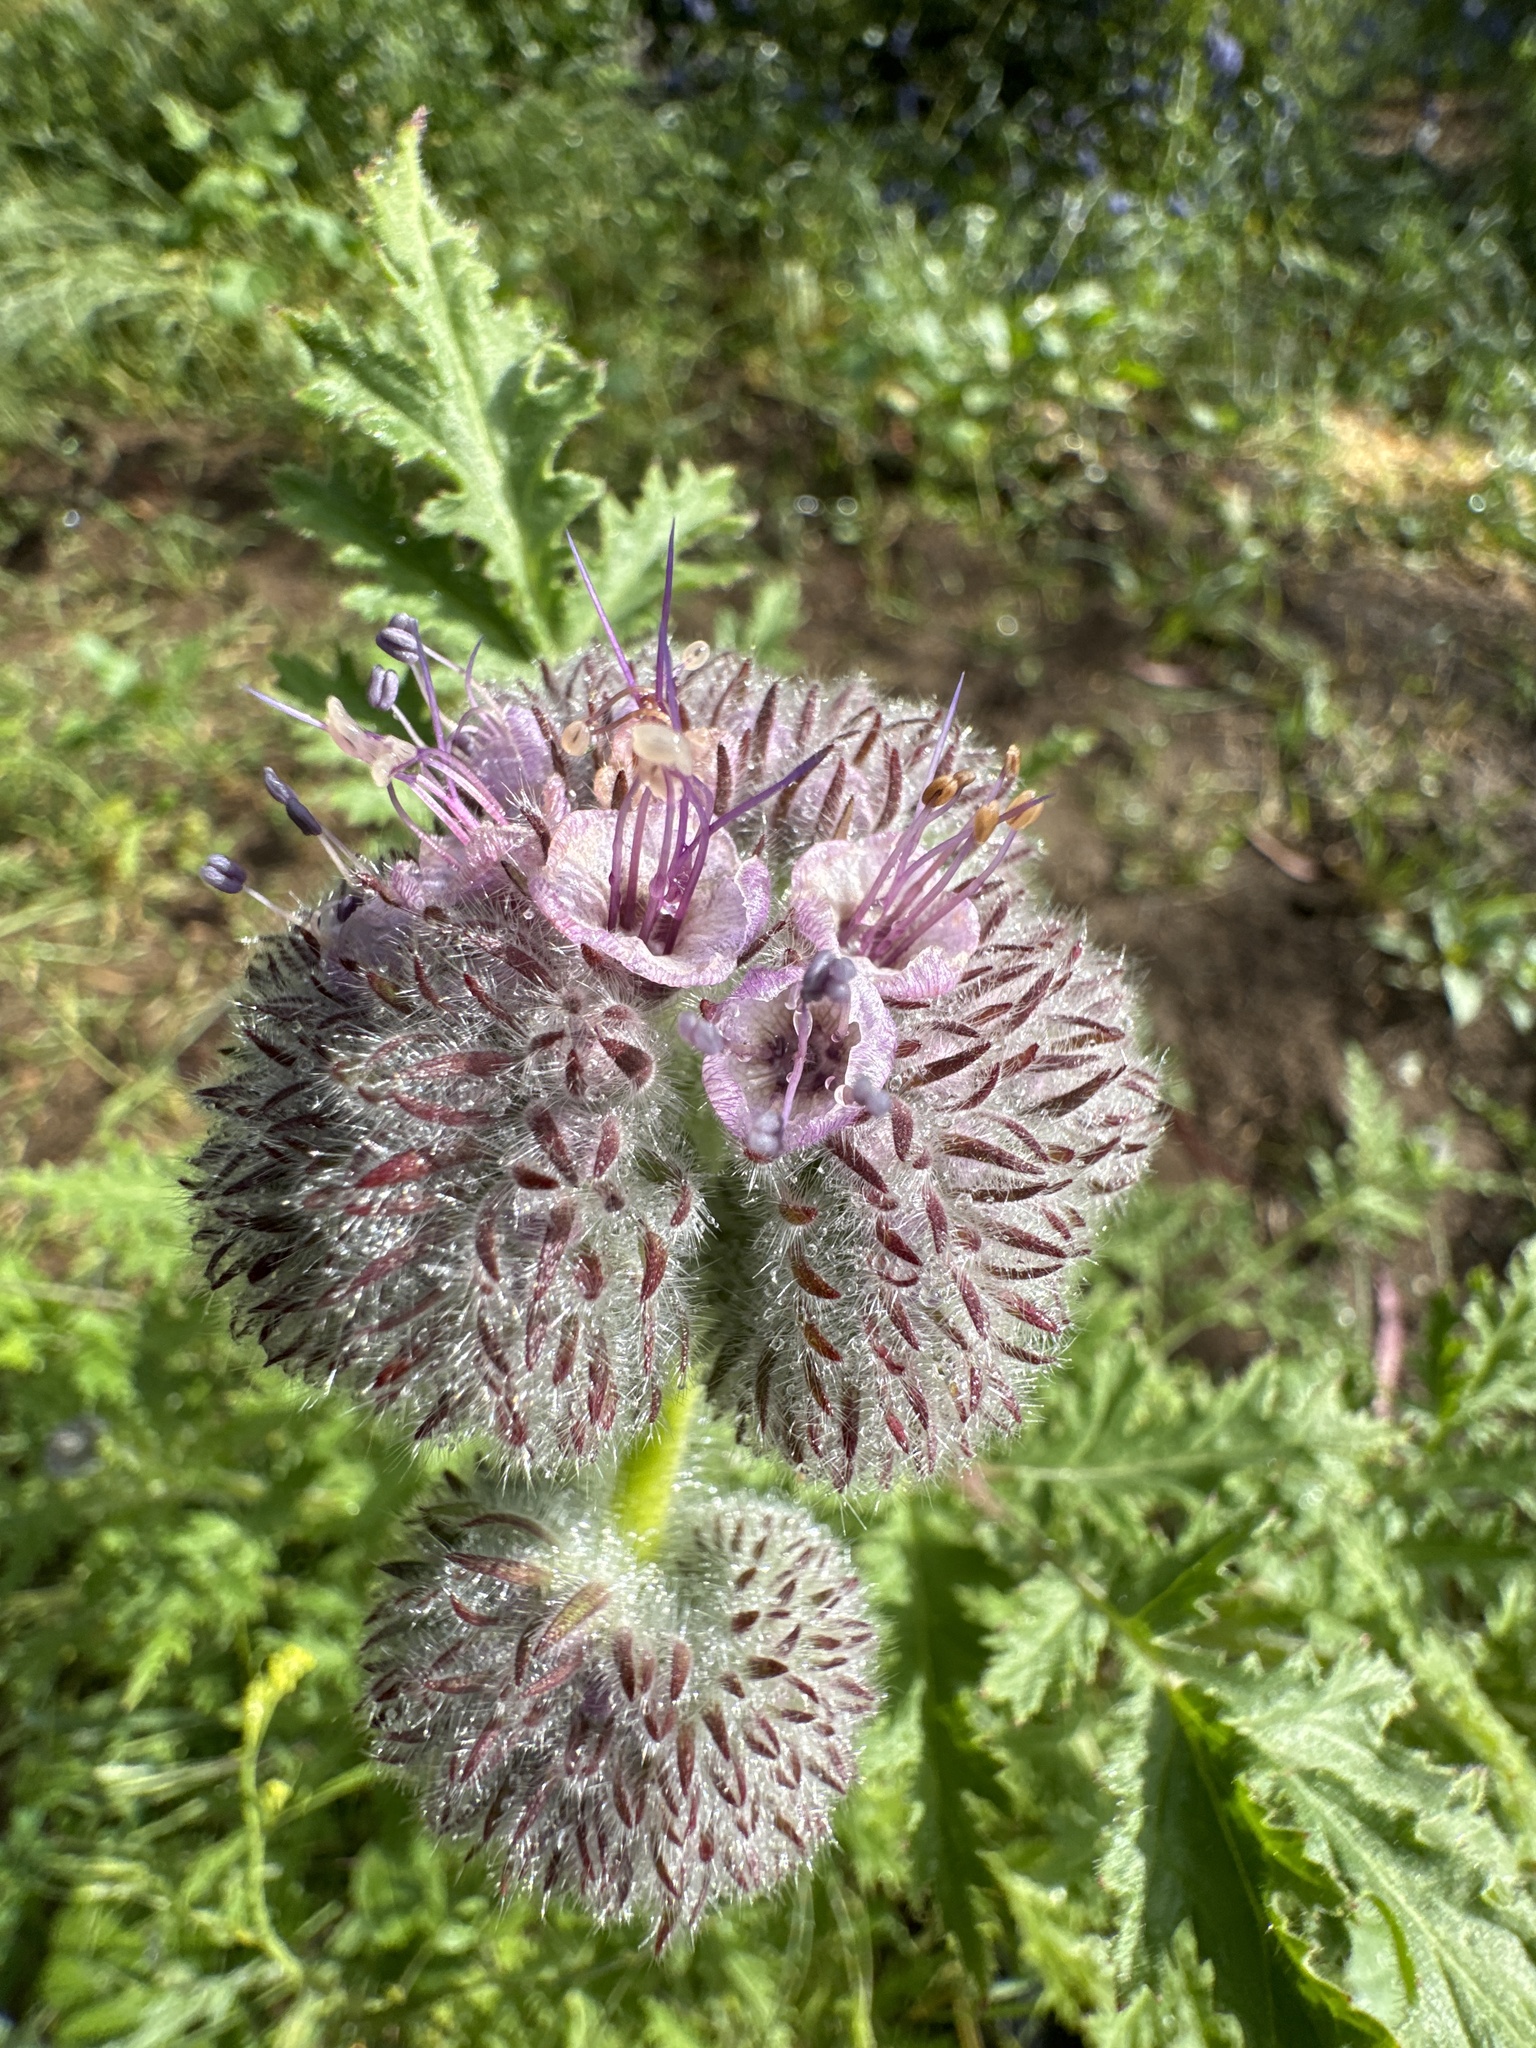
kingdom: Plantae
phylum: Tracheophyta
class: Magnoliopsida
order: Boraginales
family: Hydrophyllaceae
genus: Phacelia
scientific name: Phacelia hubbyi
